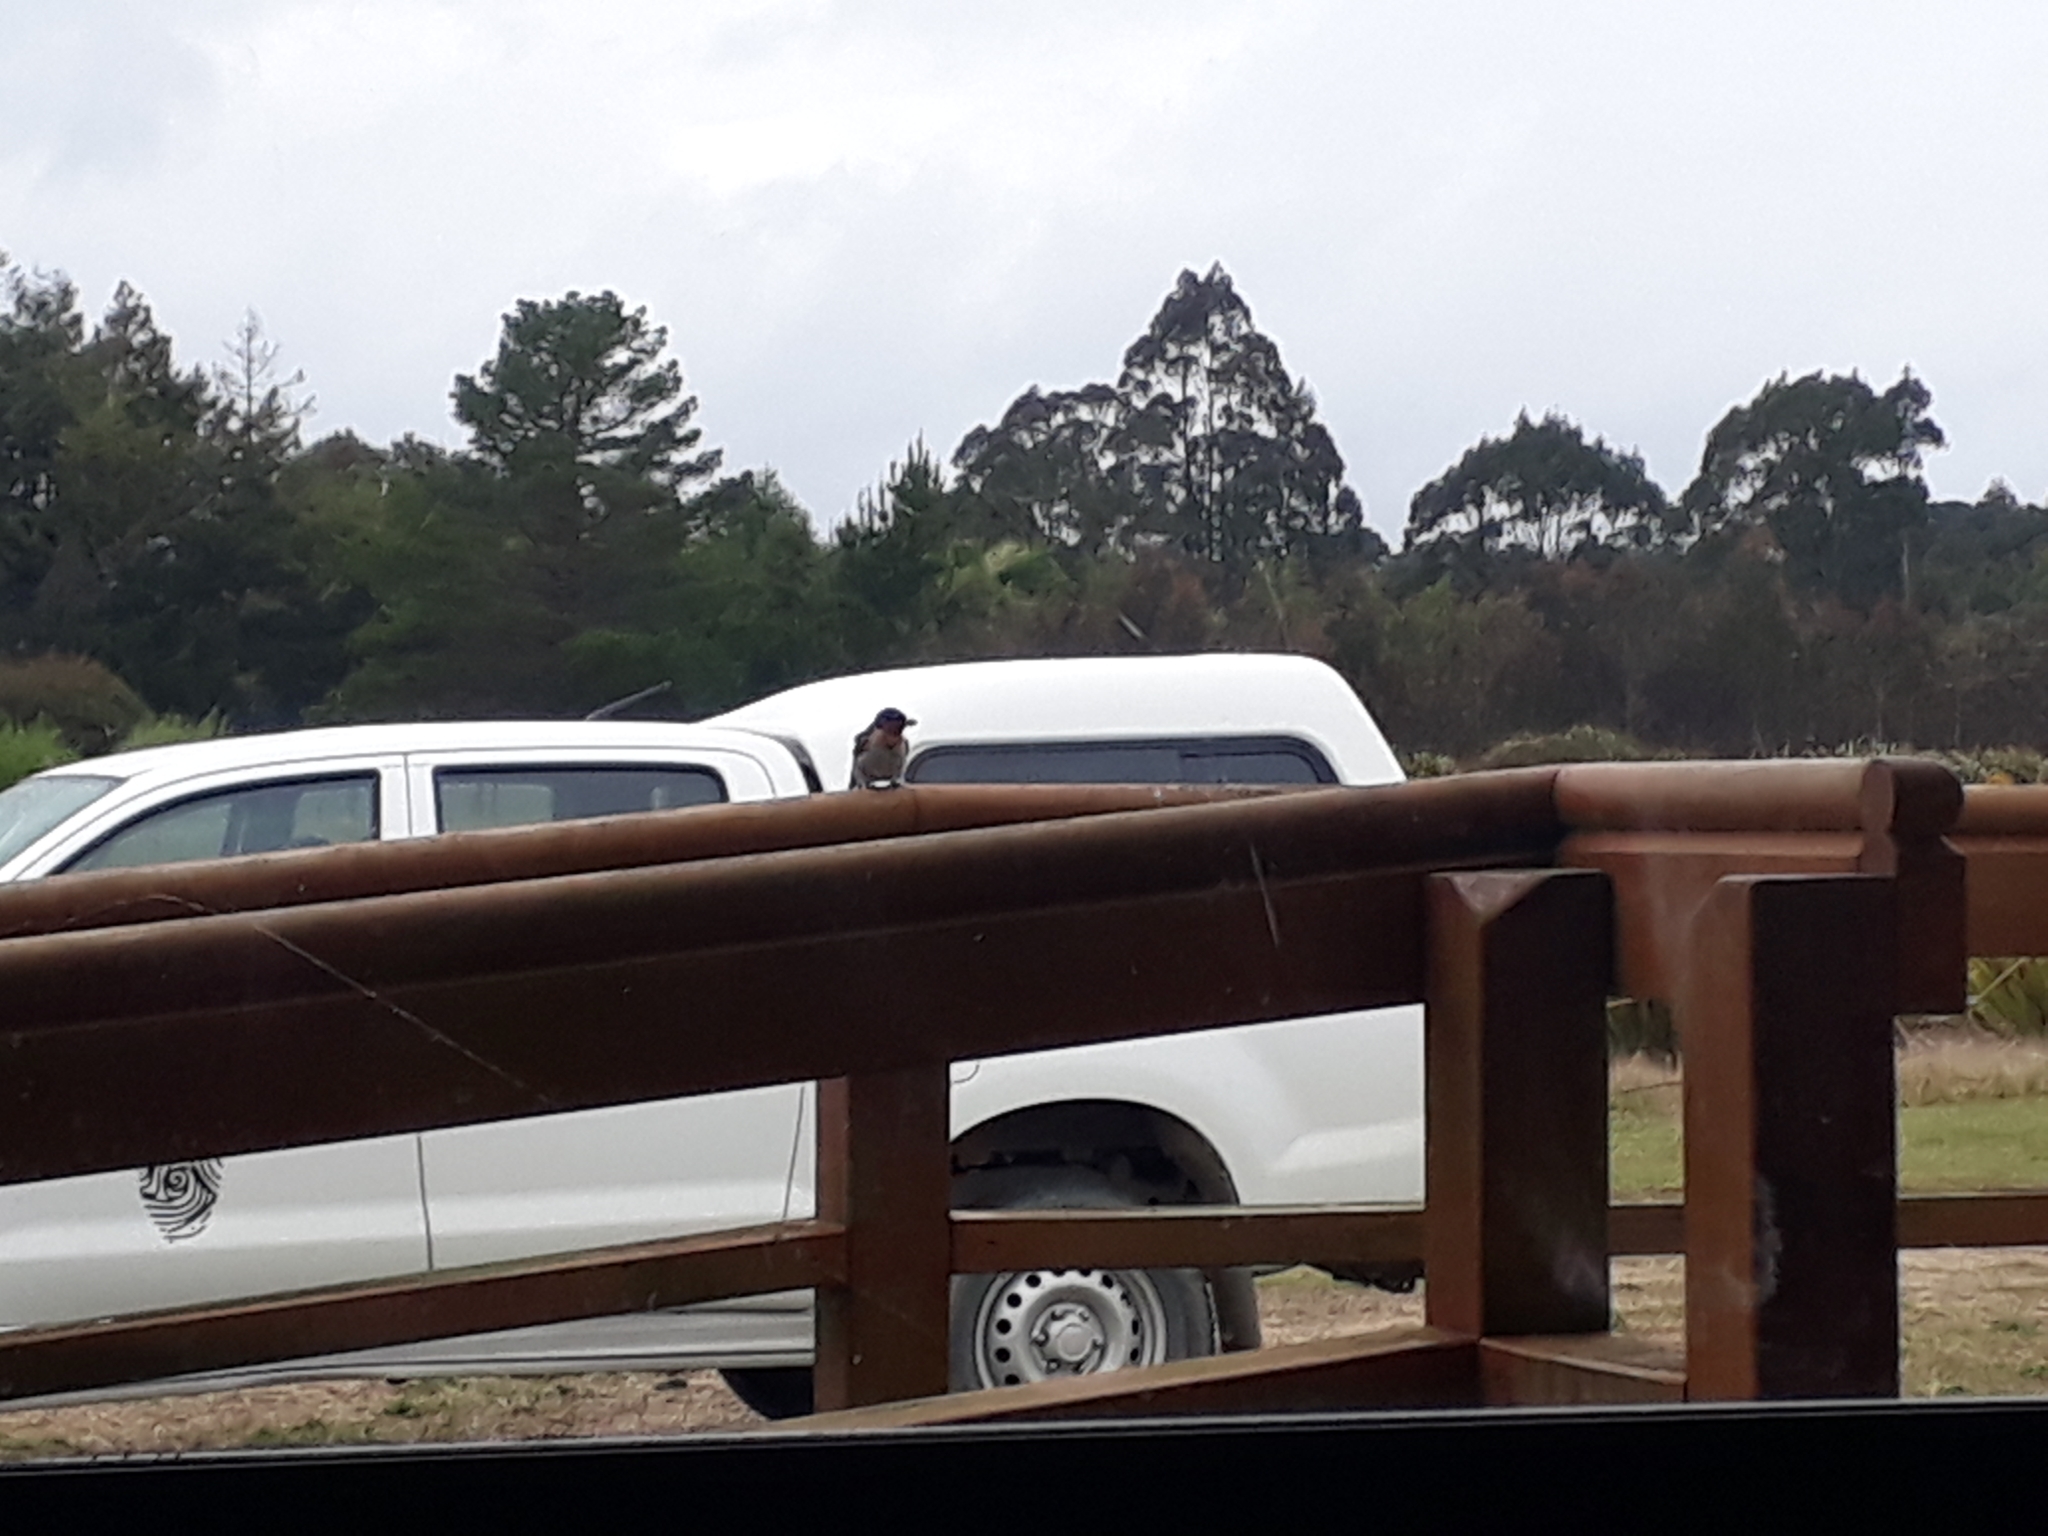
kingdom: Animalia
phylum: Chordata
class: Aves
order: Passeriformes
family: Hirundinidae
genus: Hirundo
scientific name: Hirundo neoxena
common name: Welcome swallow
